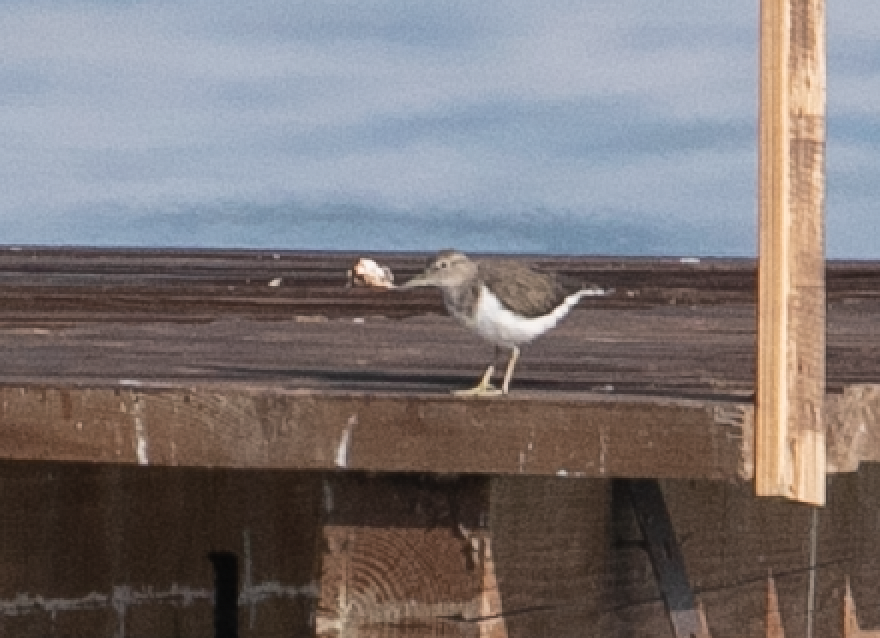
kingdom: Animalia
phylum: Chordata
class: Aves
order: Charadriiformes
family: Scolopacidae
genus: Actitis
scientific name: Actitis hypoleucos
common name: Common sandpiper
